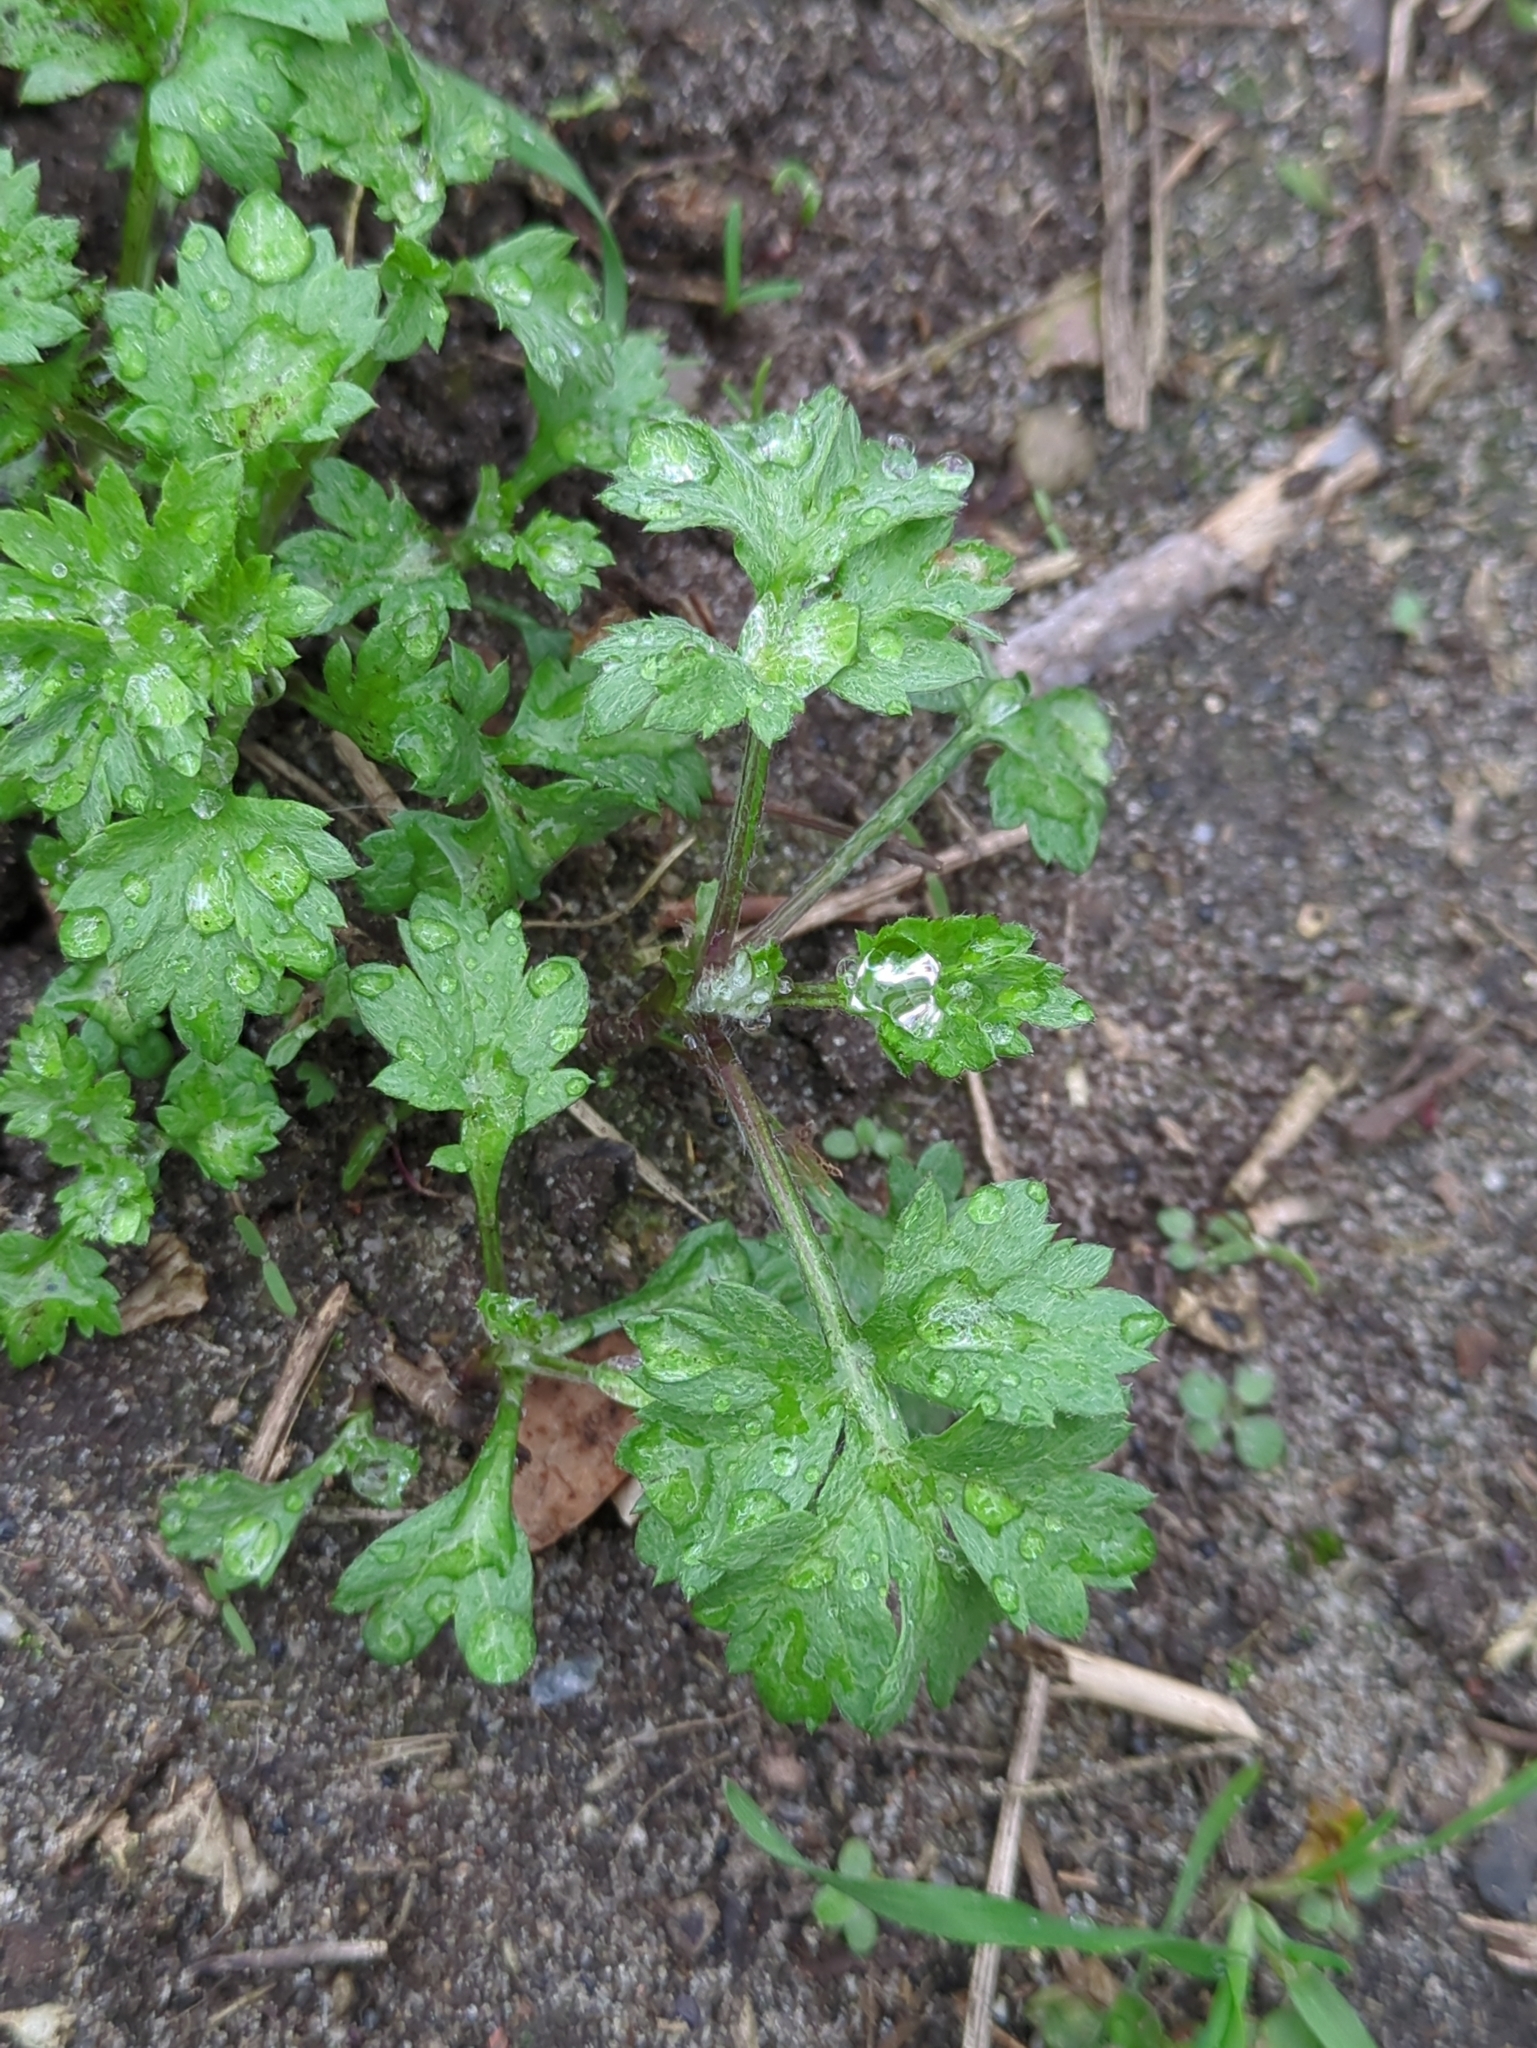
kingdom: Plantae
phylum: Tracheophyta
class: Magnoliopsida
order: Asterales
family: Asteraceae
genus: Artemisia
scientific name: Artemisia vulgaris
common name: Mugwort
